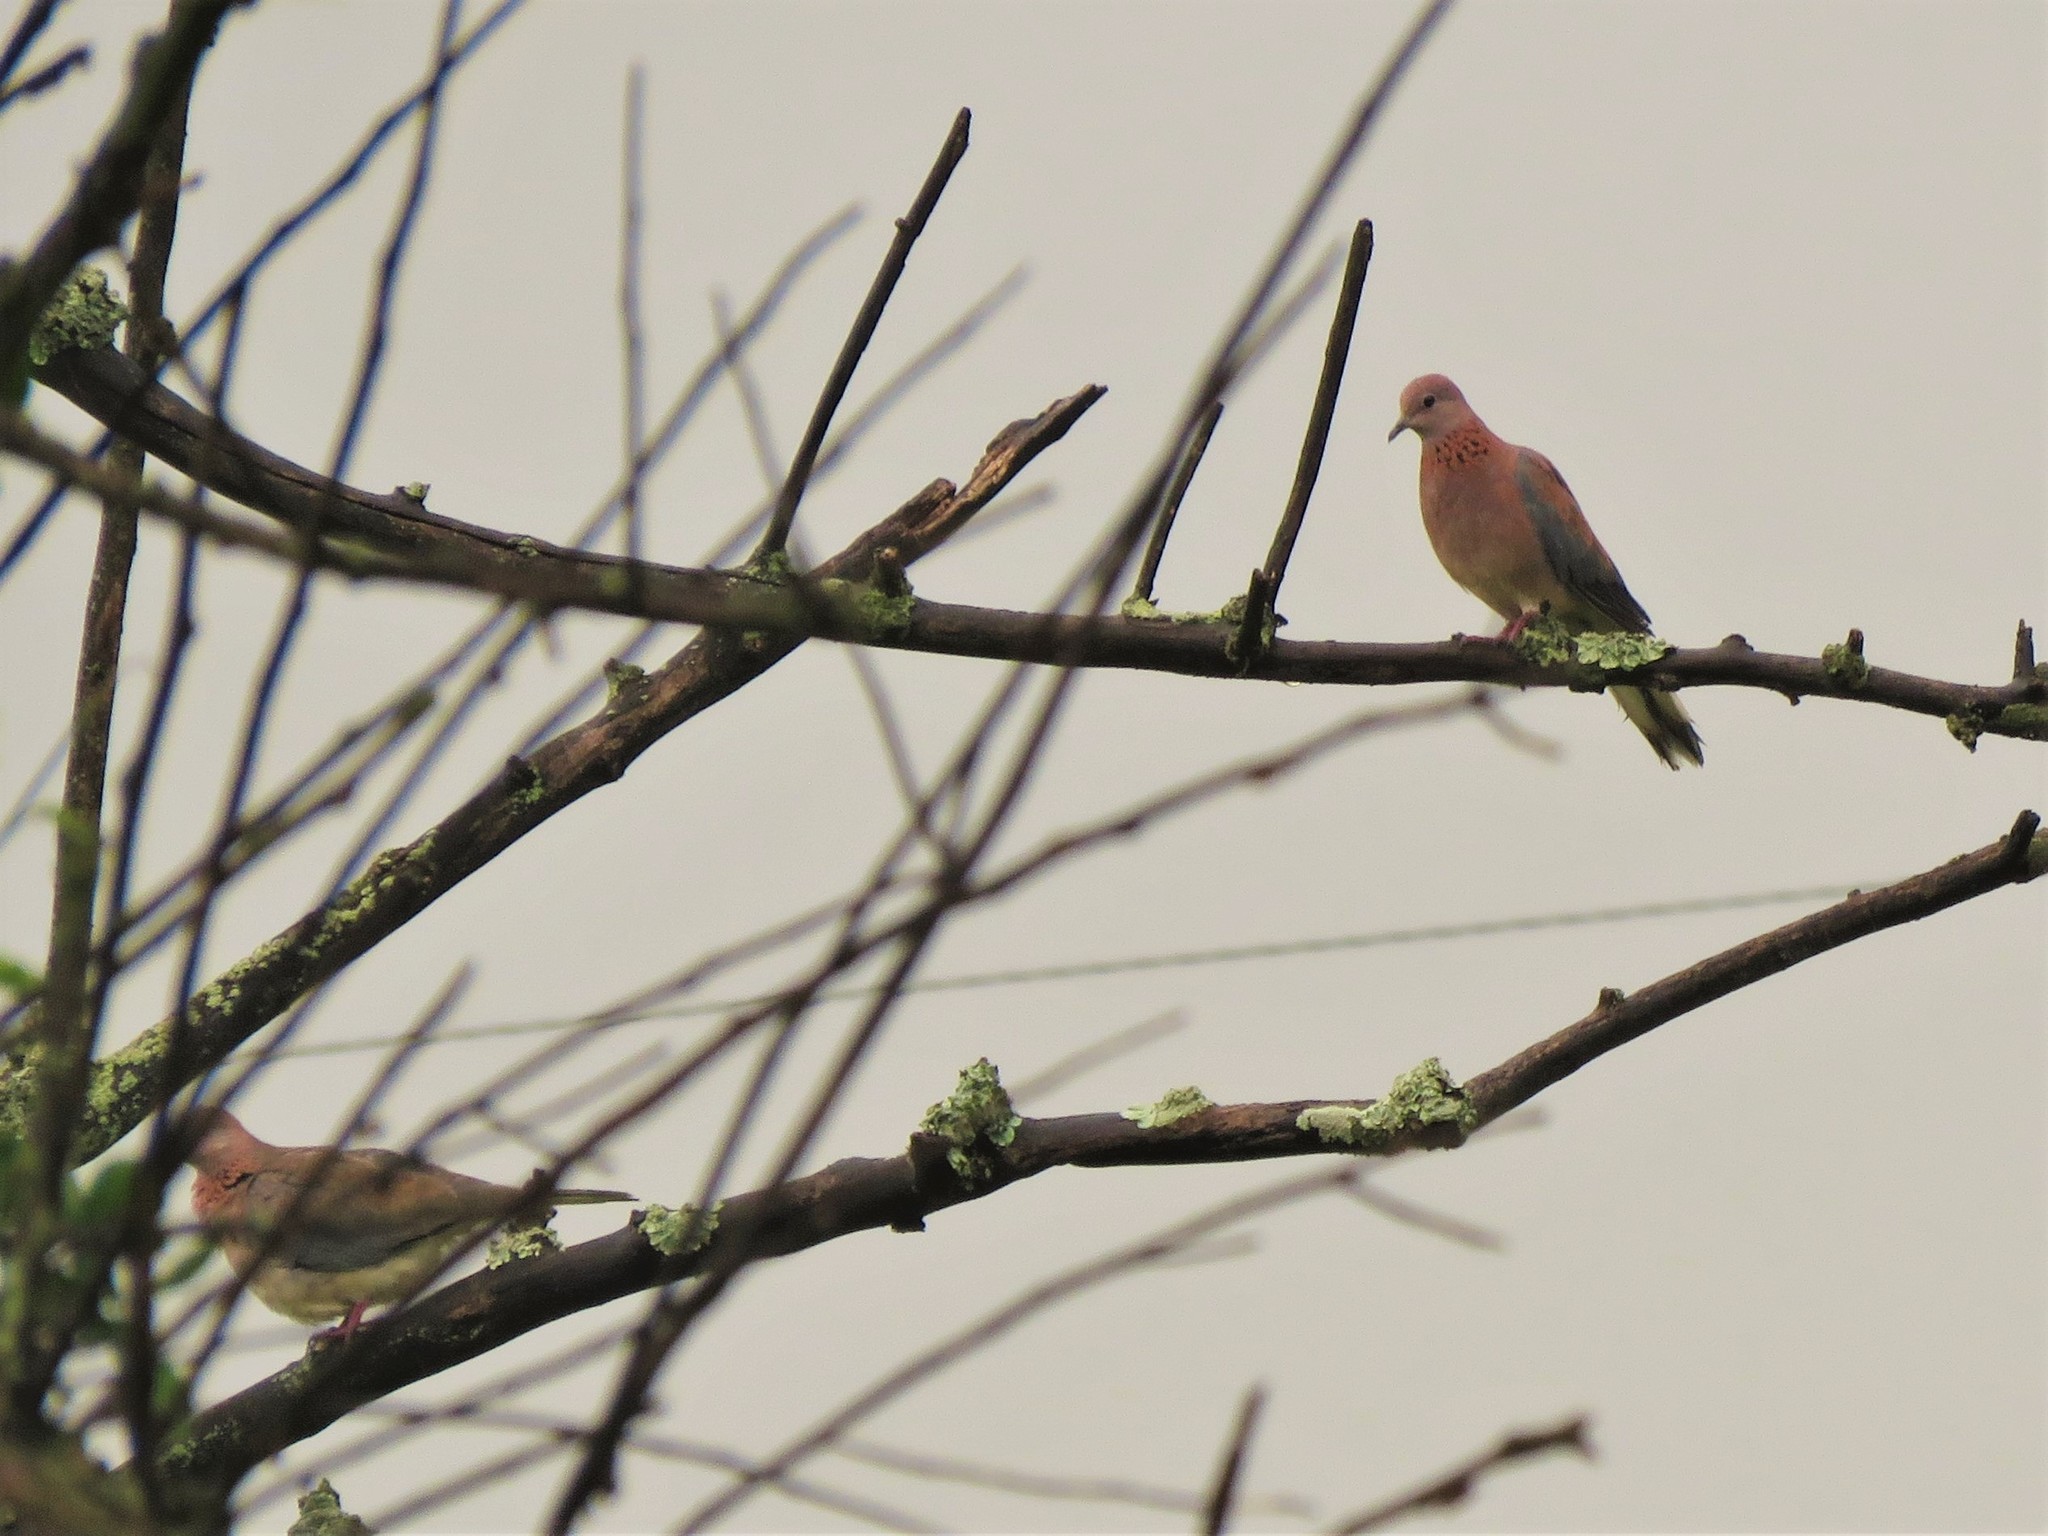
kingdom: Animalia
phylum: Chordata
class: Aves
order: Columbiformes
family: Columbidae
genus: Spilopelia
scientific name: Spilopelia senegalensis
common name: Laughing dove
